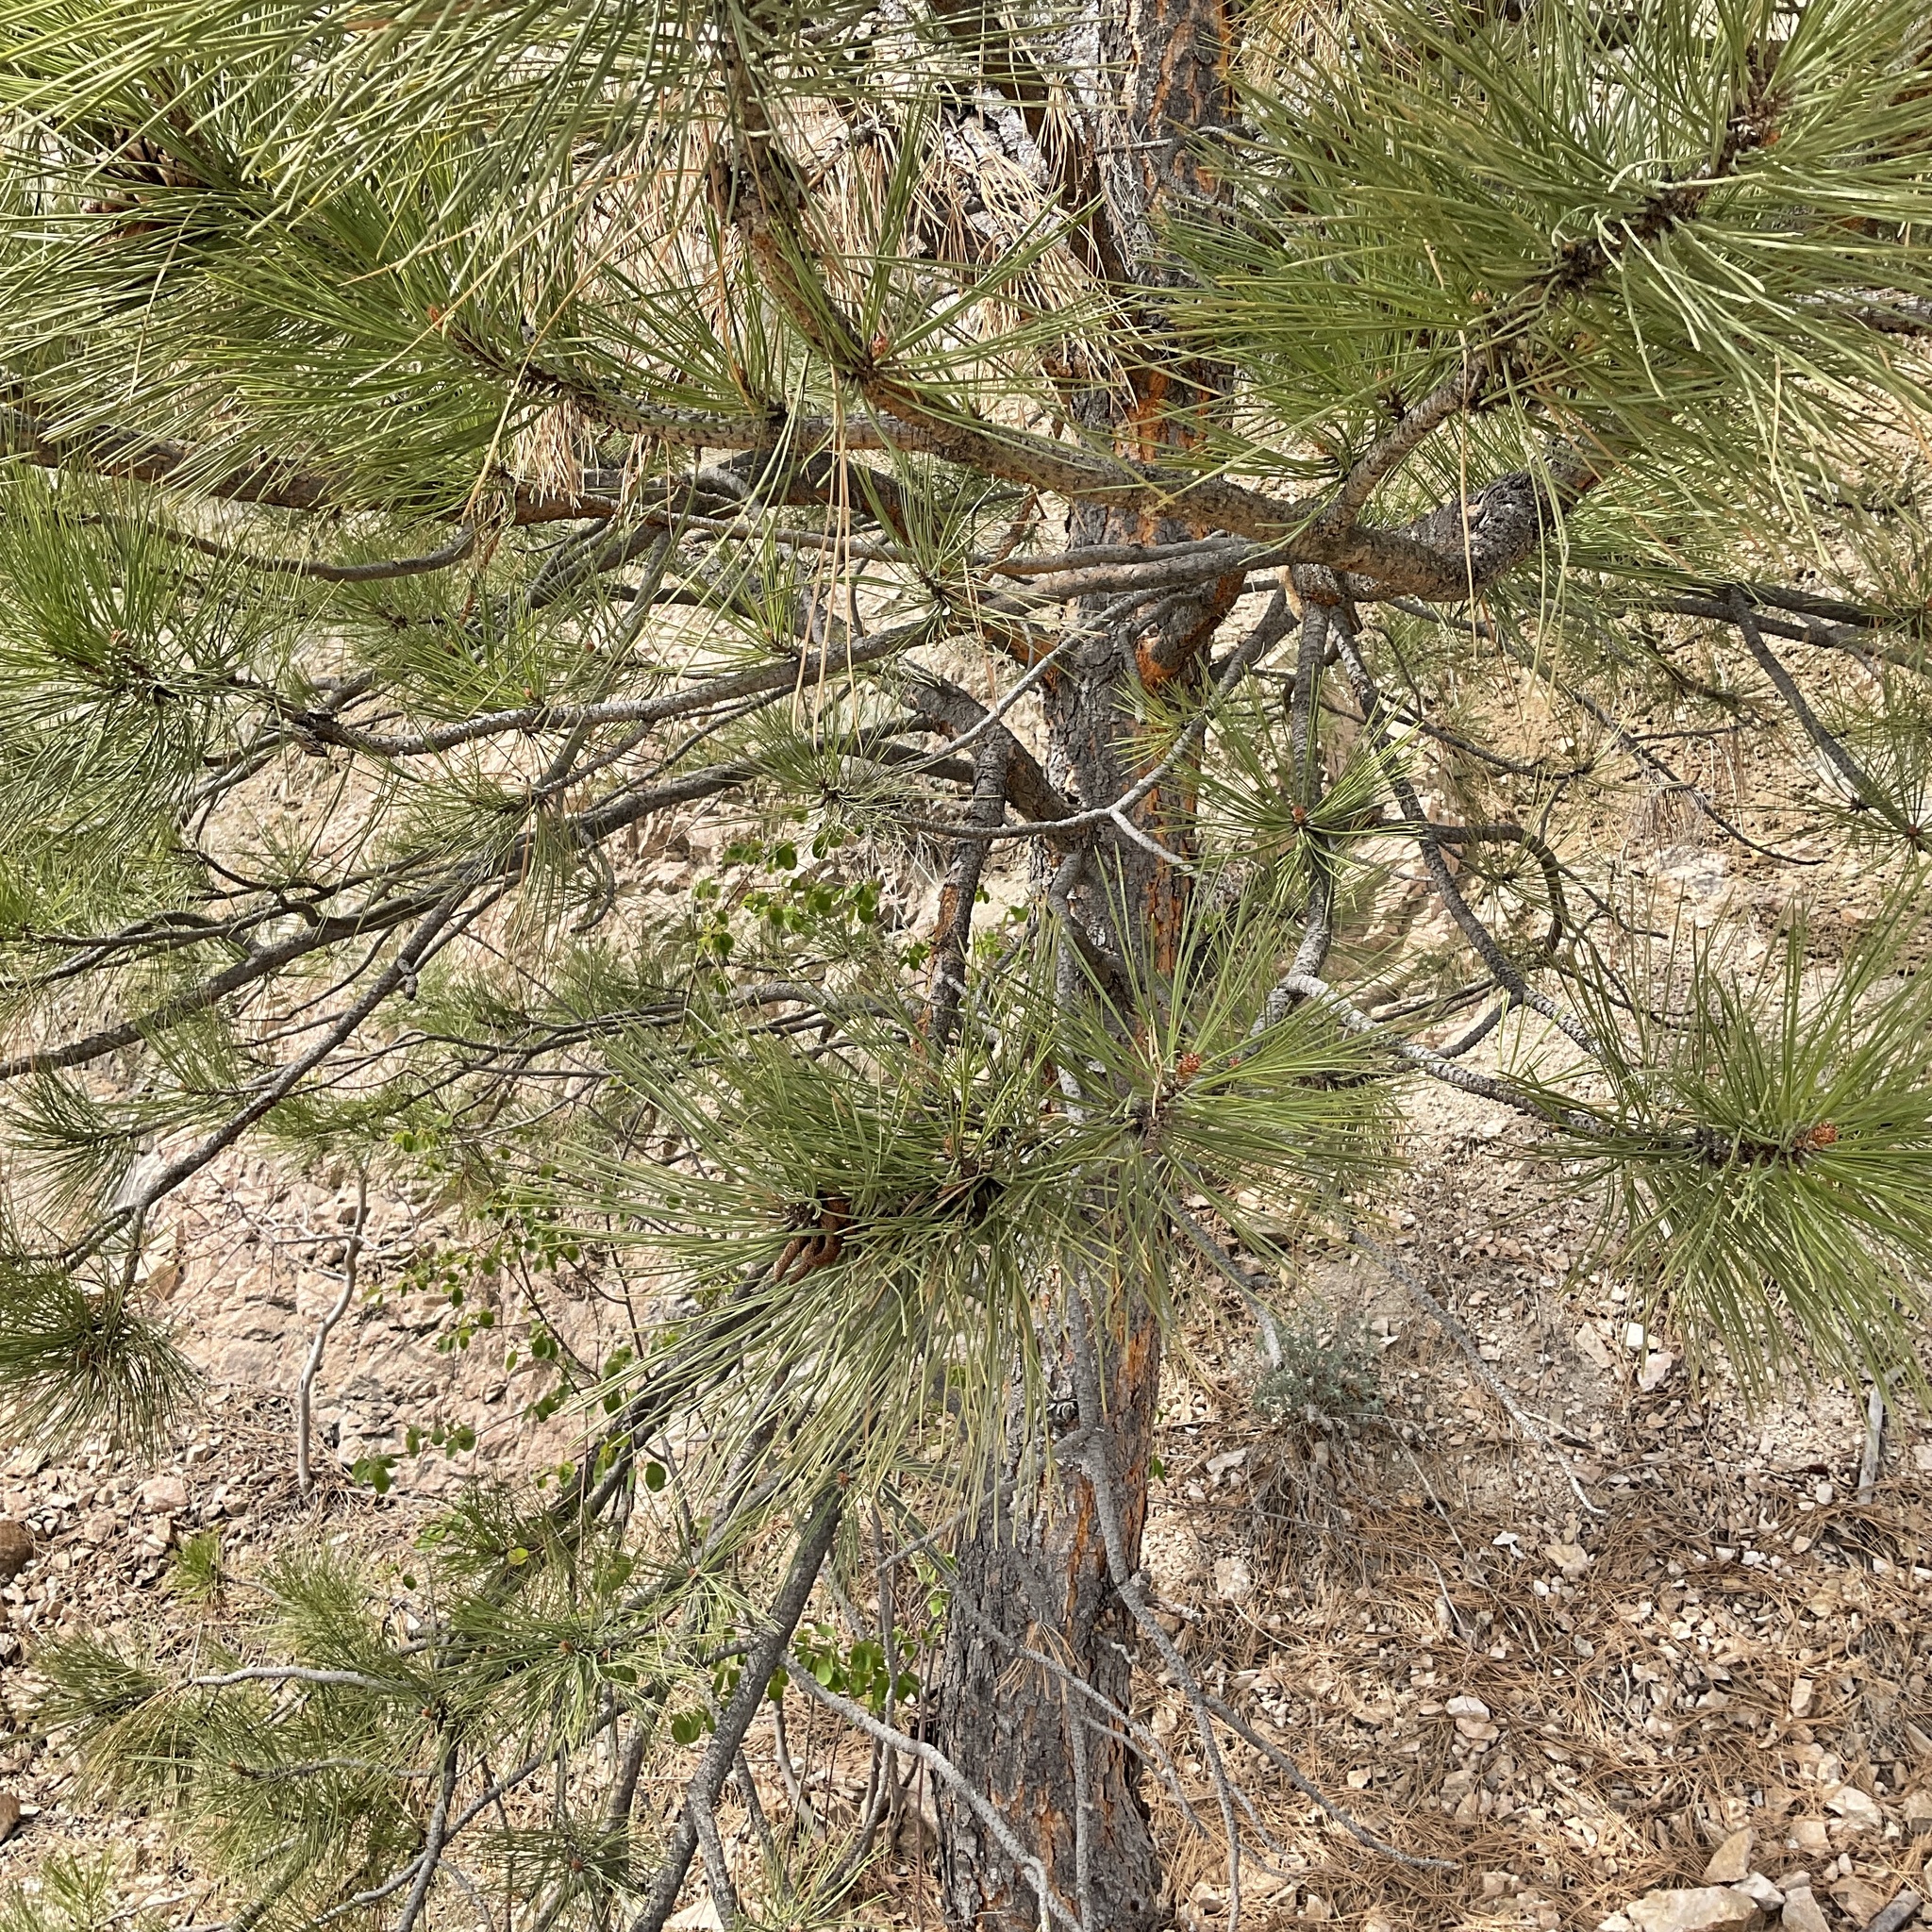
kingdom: Plantae
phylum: Tracheophyta
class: Pinopsida
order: Pinales
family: Pinaceae
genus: Pinus
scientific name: Pinus ponderosa
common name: Western yellow-pine
